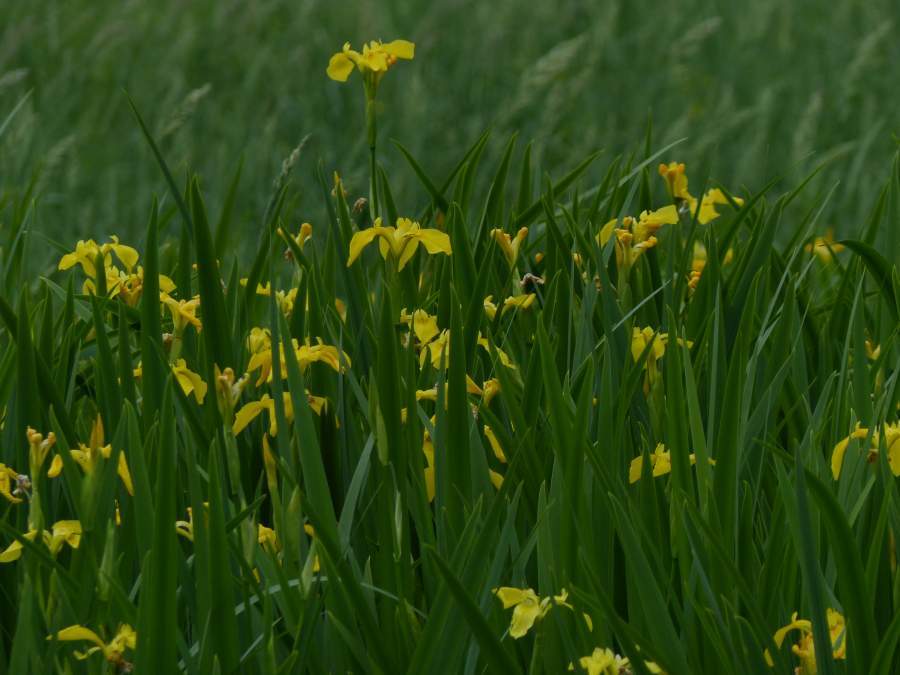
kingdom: Plantae
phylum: Tracheophyta
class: Liliopsida
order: Asparagales
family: Iridaceae
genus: Iris
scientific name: Iris pseudacorus
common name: Yellow flag
